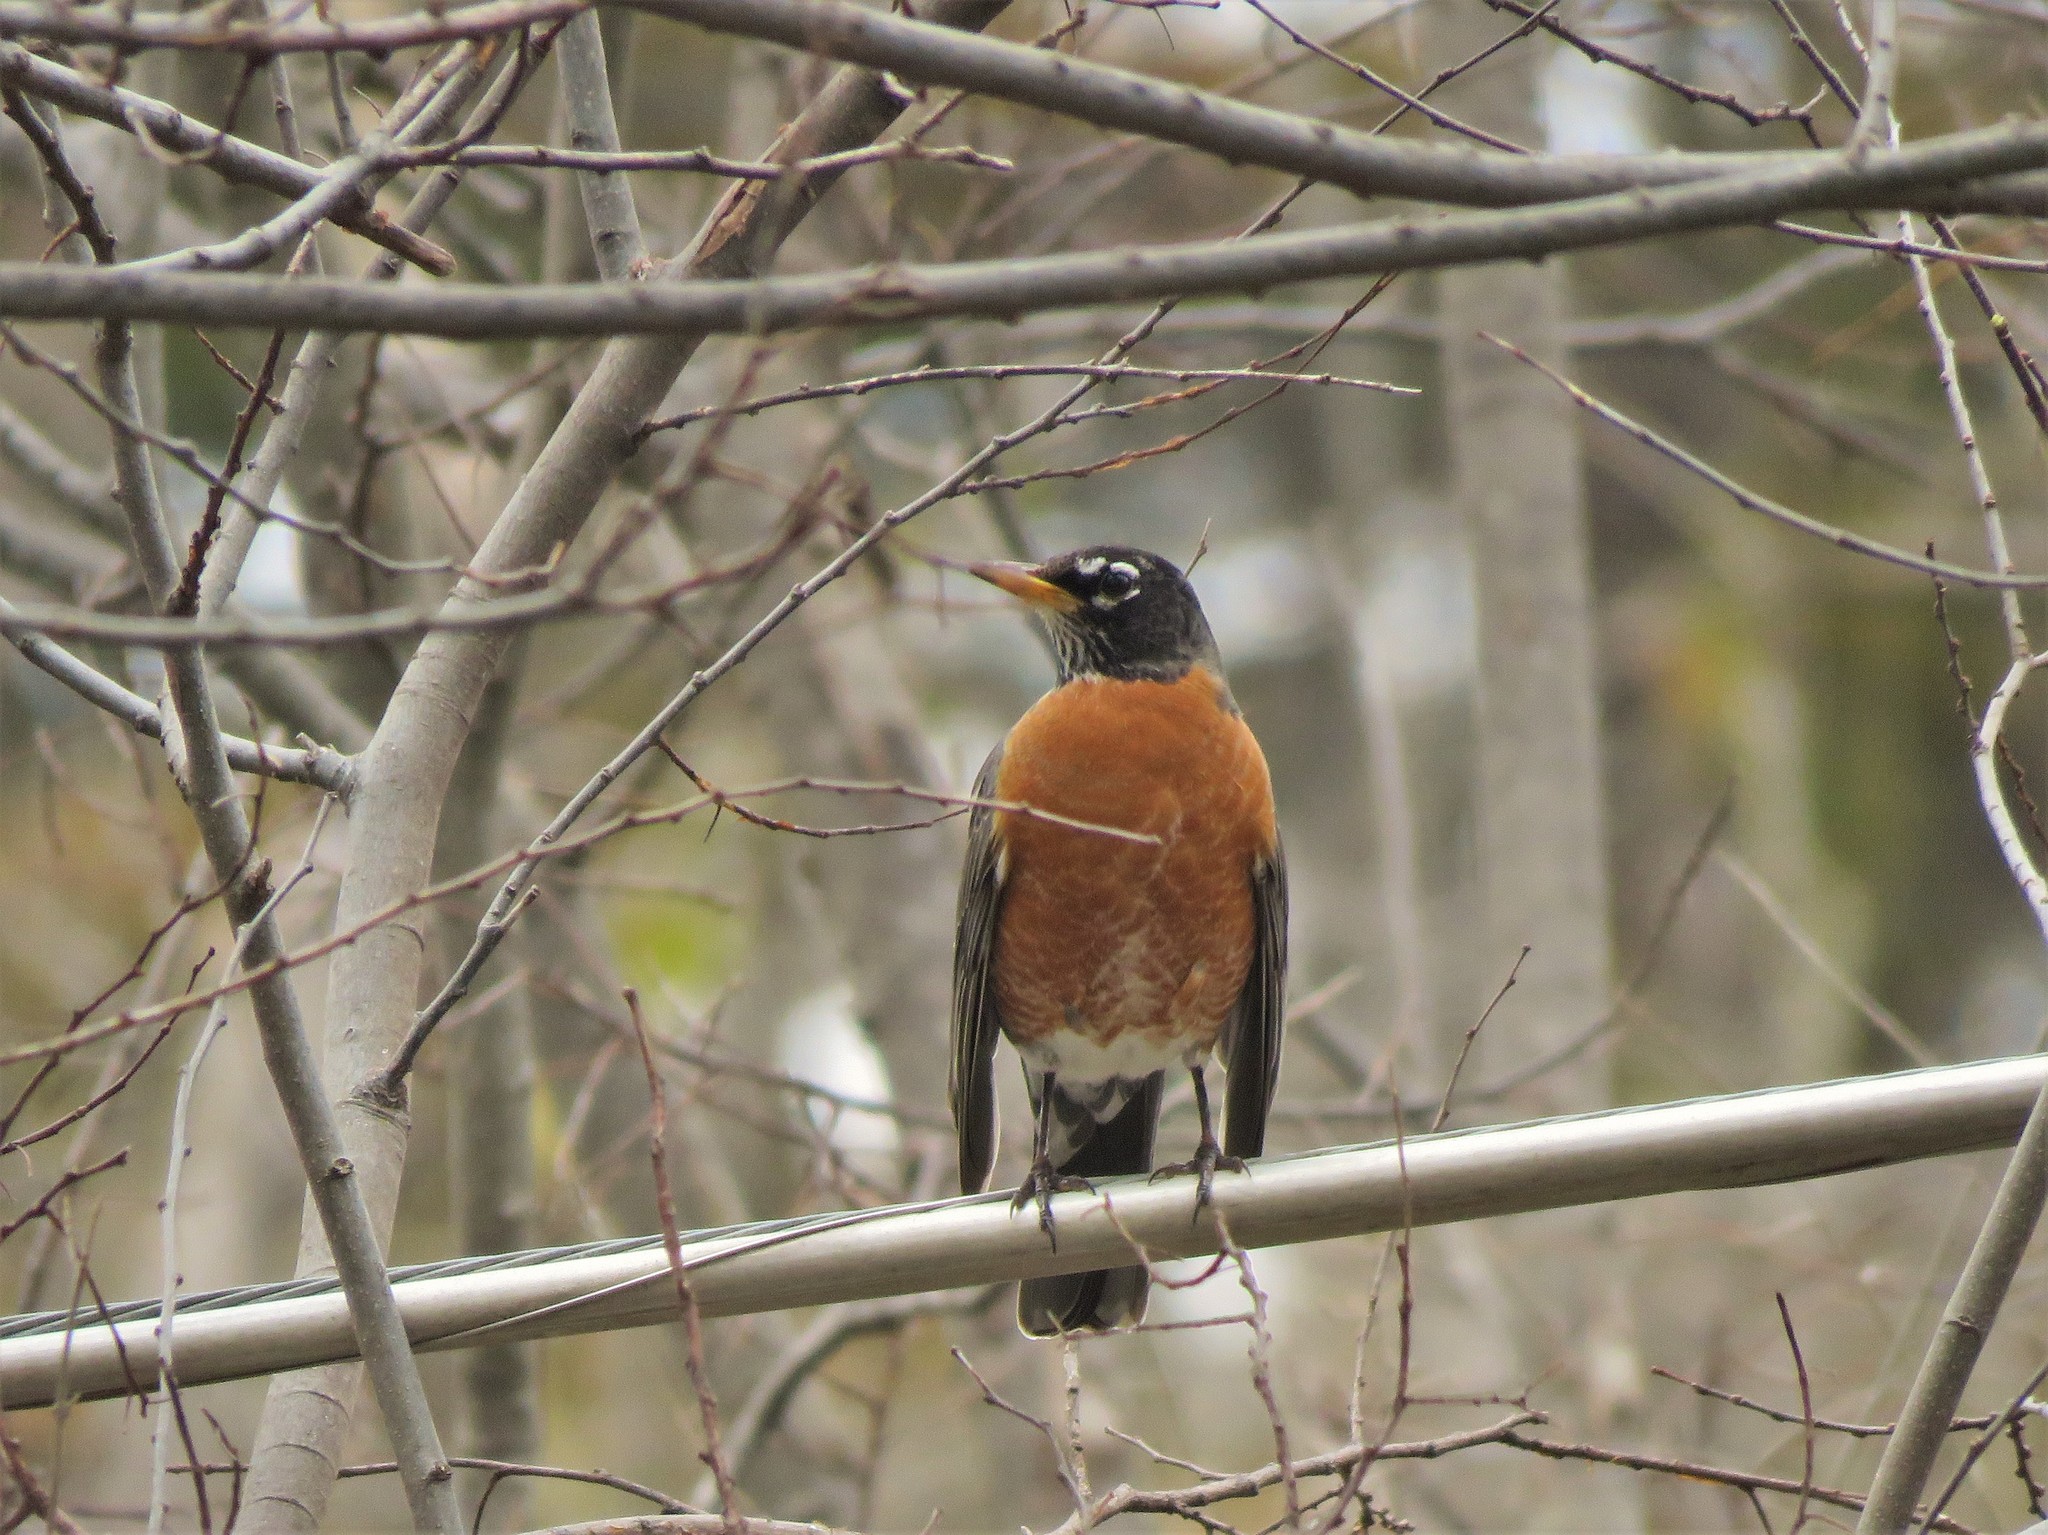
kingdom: Animalia
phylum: Chordata
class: Aves
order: Passeriformes
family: Turdidae
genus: Turdus
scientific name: Turdus migratorius
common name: American robin
